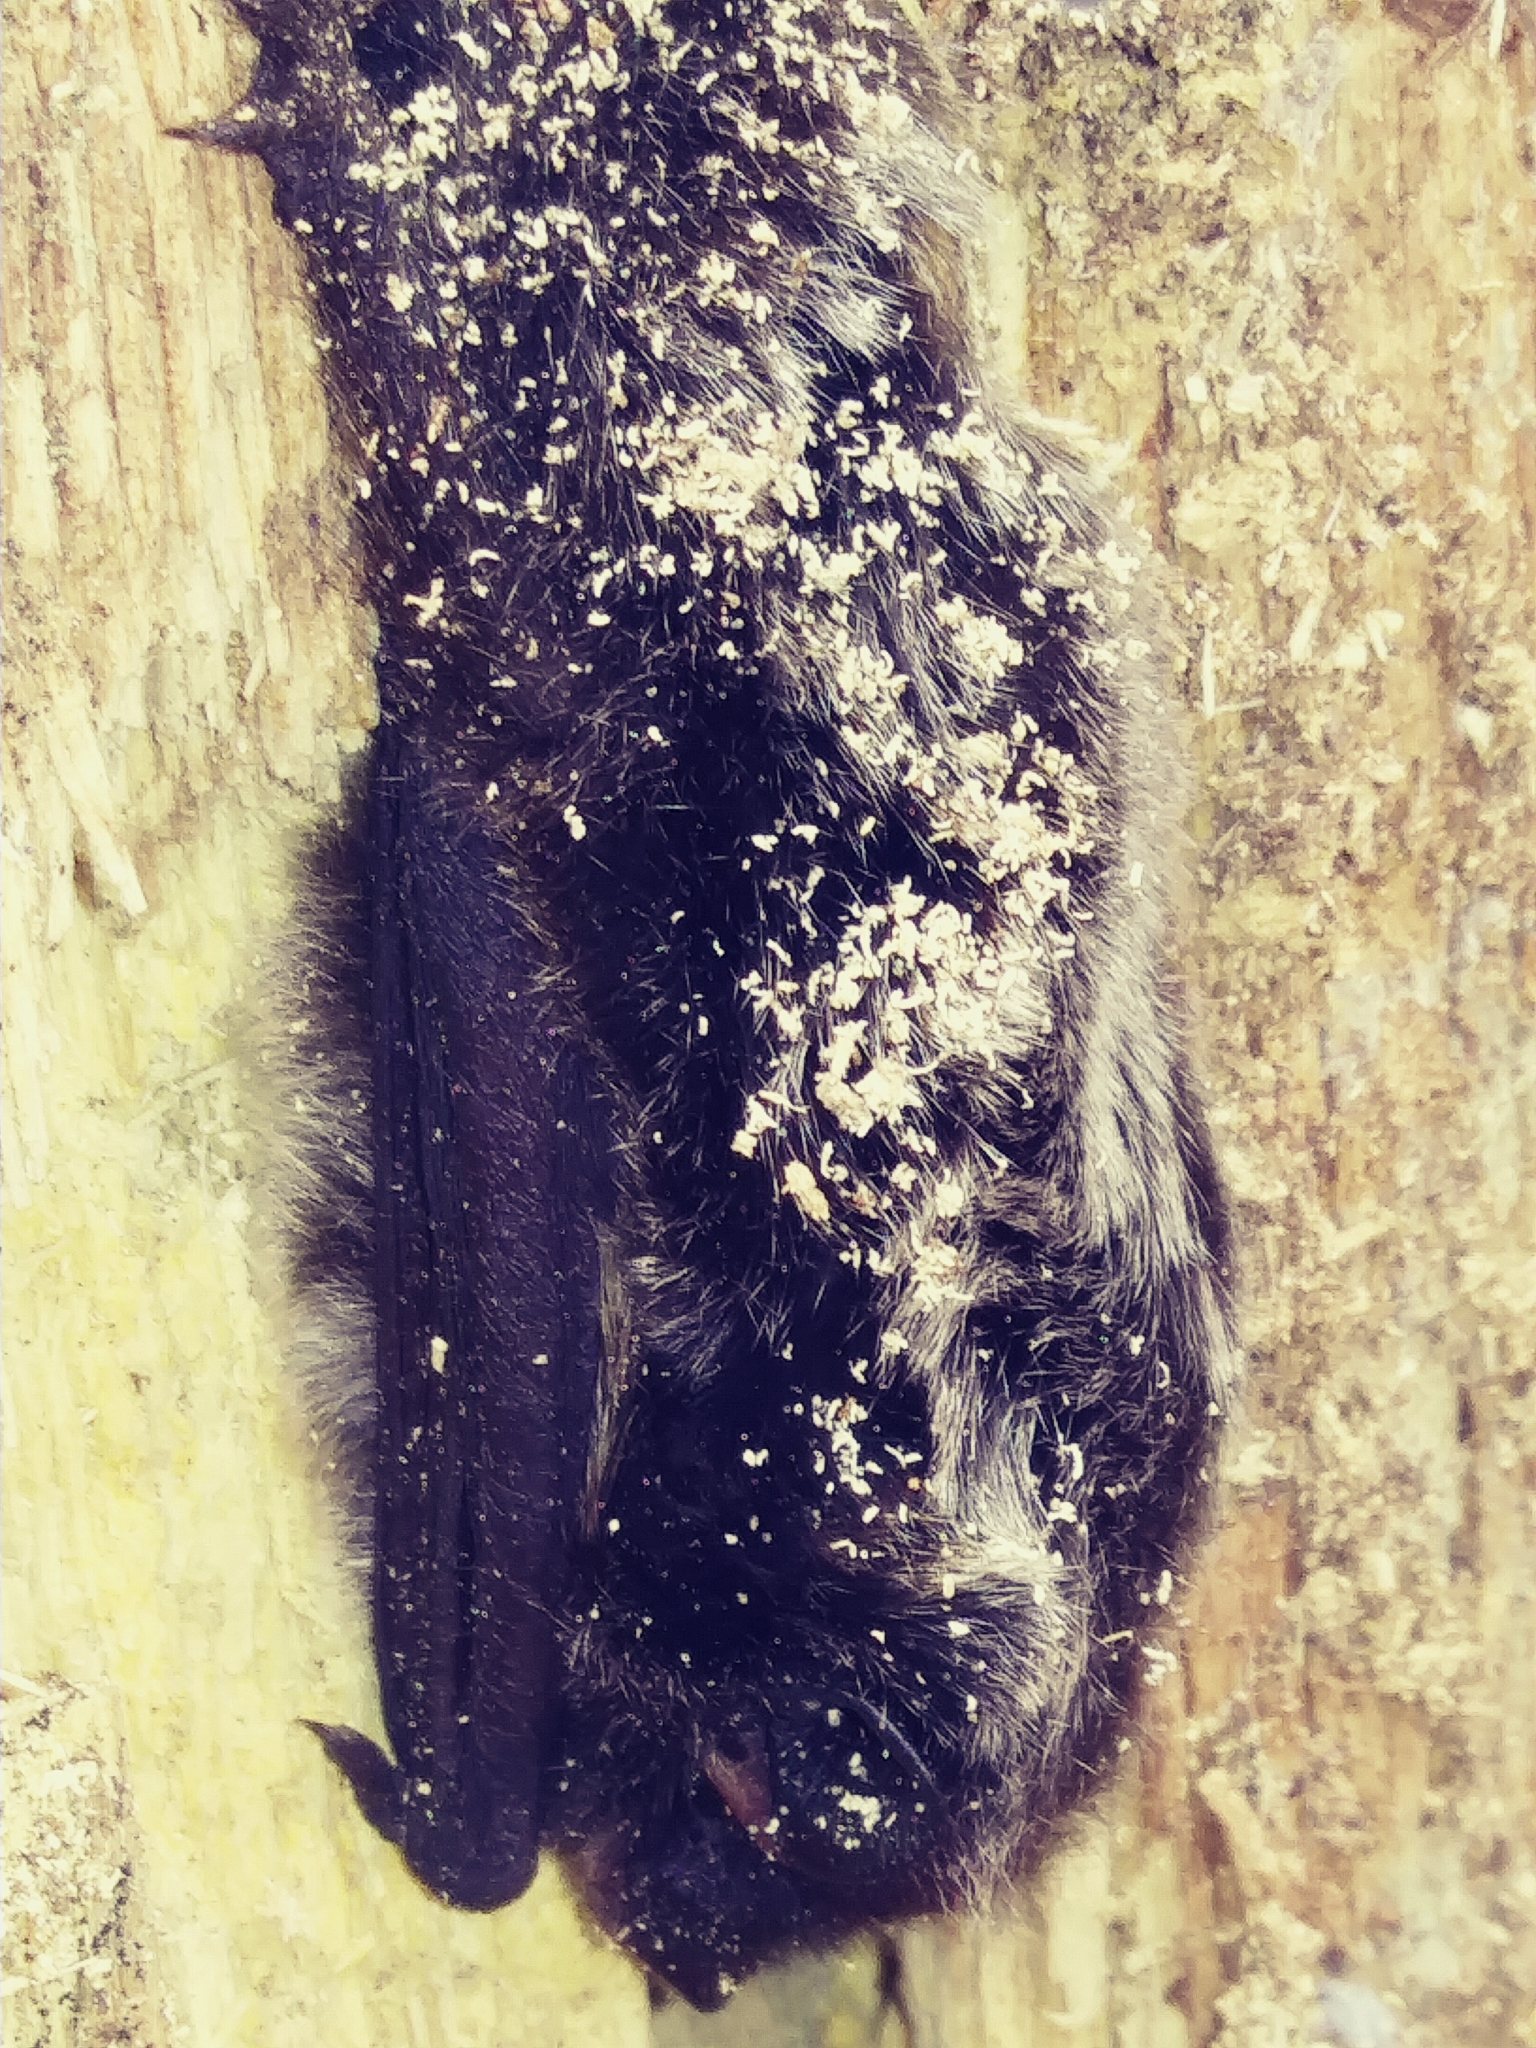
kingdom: Animalia
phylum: Chordata
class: Mammalia
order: Chiroptera
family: Vespertilionidae
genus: Lasionycteris
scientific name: Lasionycteris noctivagans
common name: Silver-haired bat
